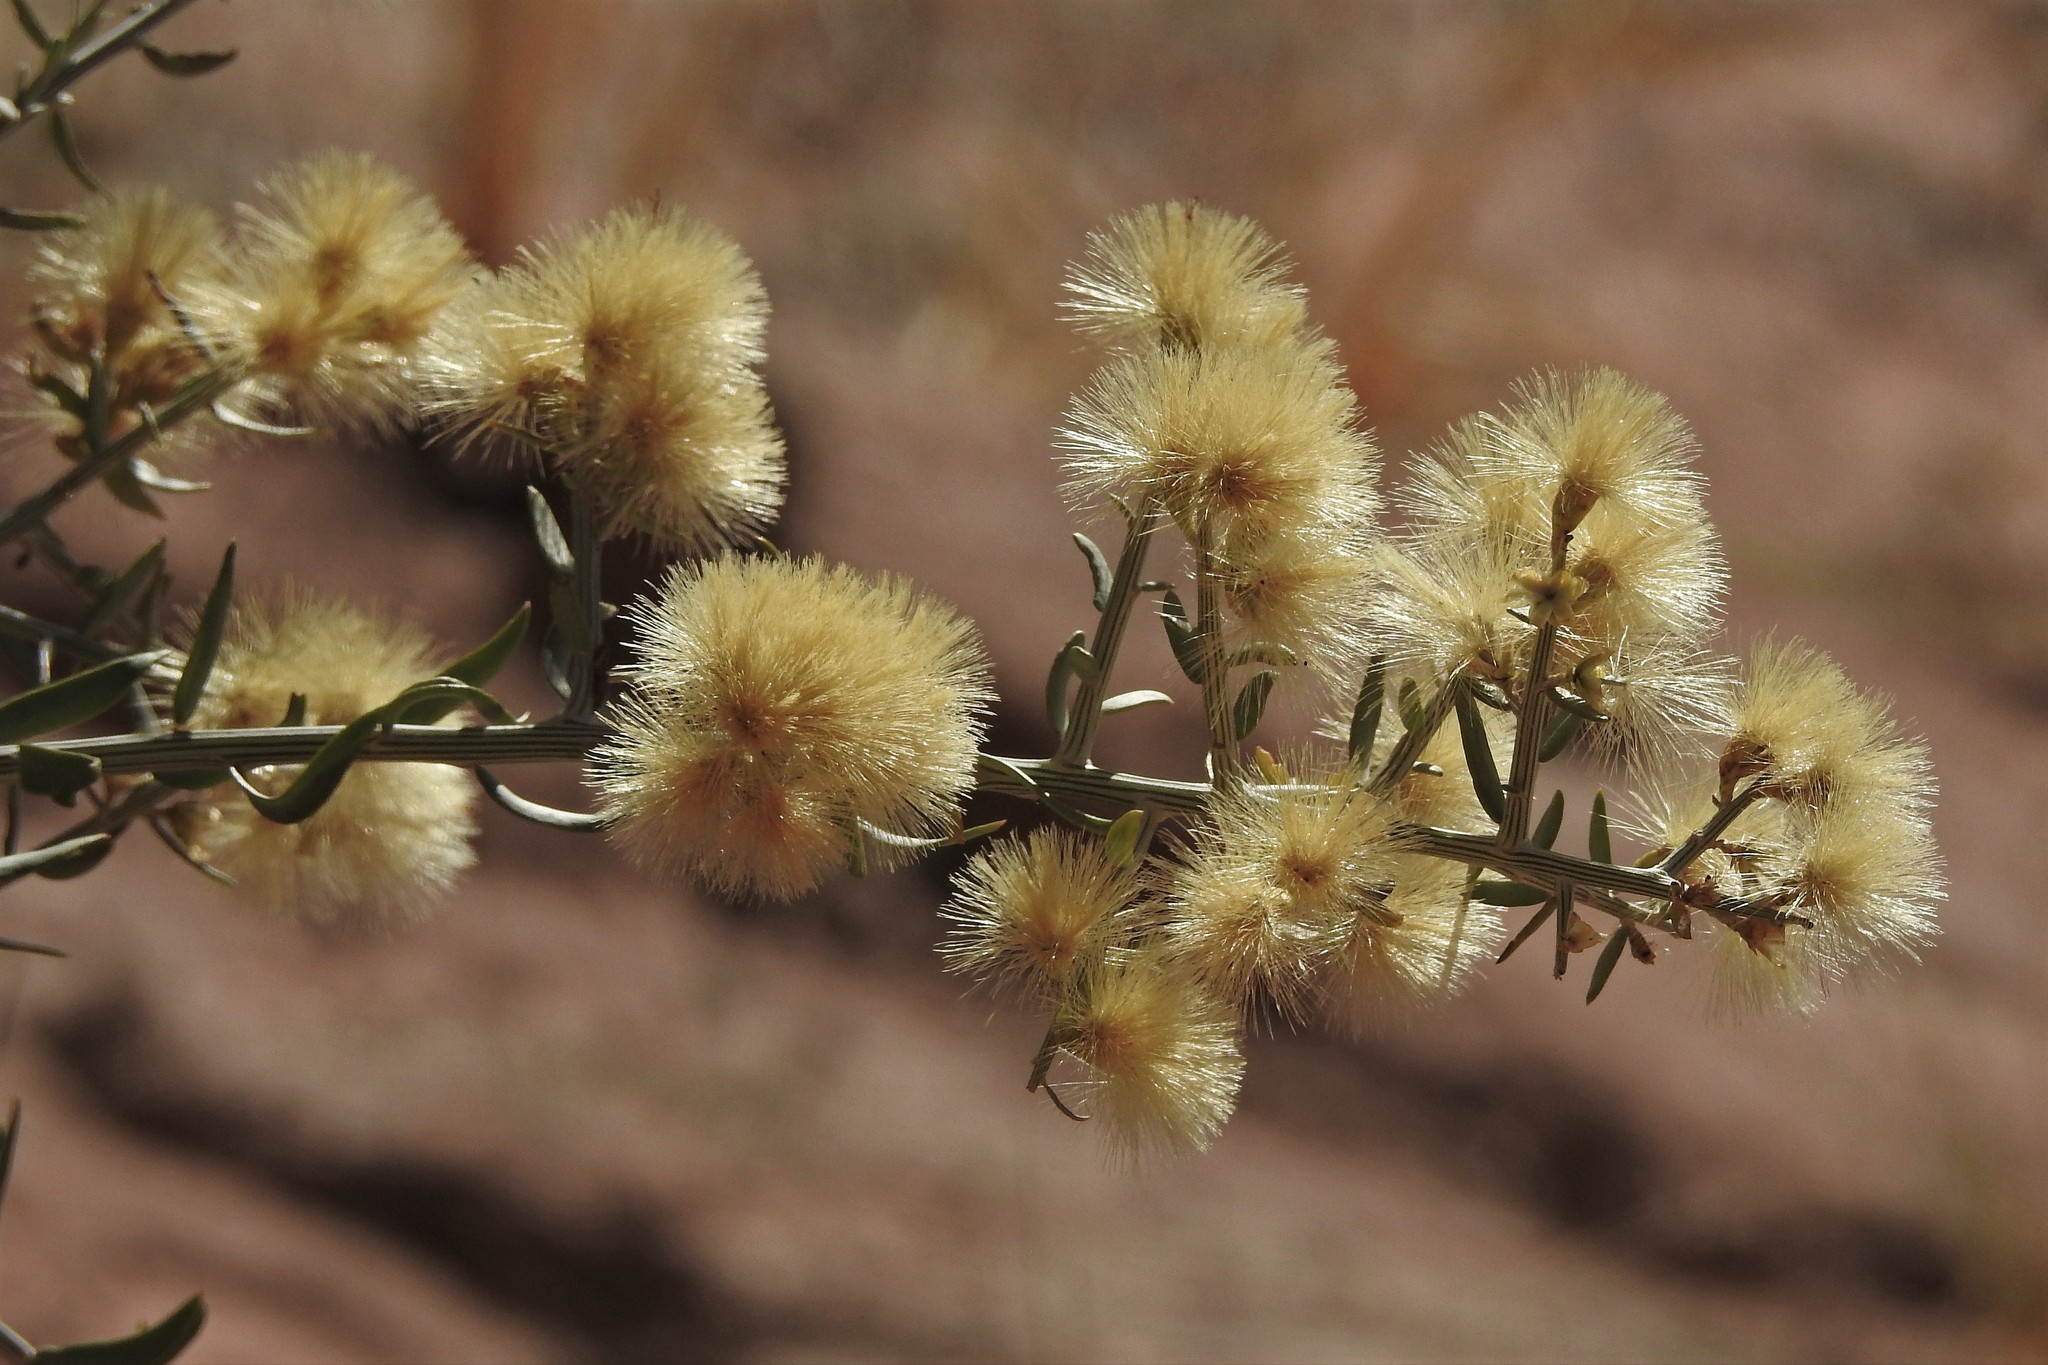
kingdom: Plantae
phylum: Tracheophyta
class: Magnoliopsida
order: Asterales
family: Asteraceae
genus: Cyclolepis
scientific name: Cyclolepis genistoides
